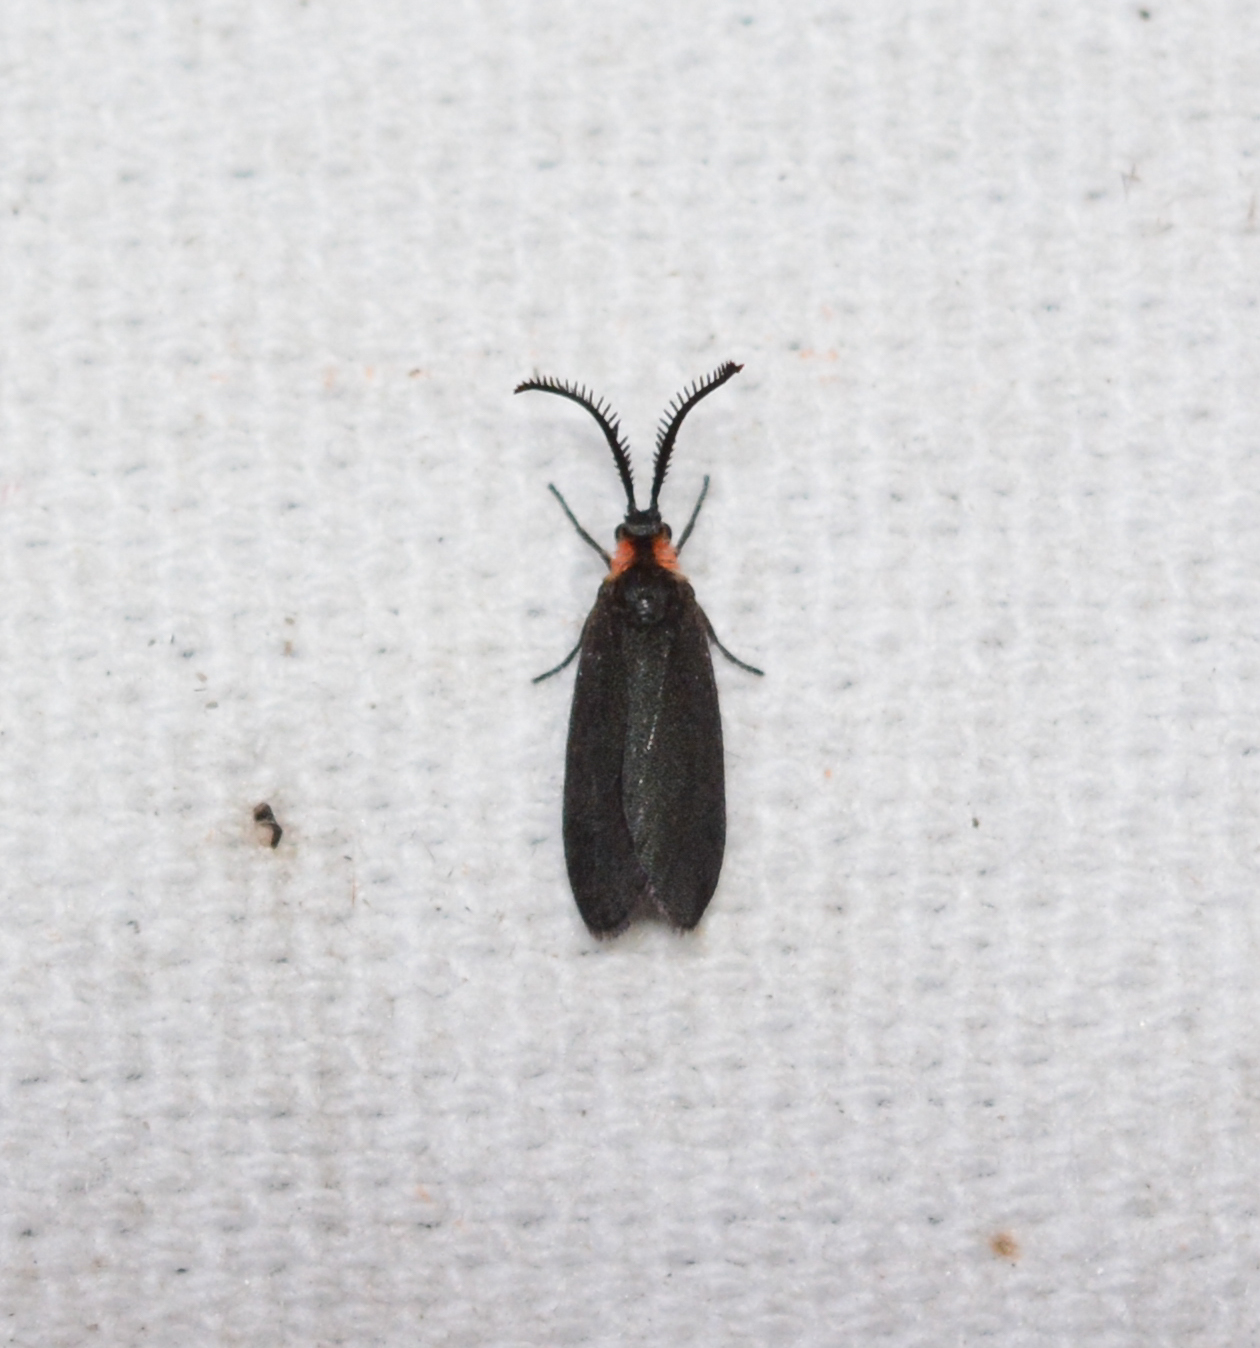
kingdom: Animalia
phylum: Arthropoda
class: Insecta
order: Lepidoptera
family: Zygaenidae
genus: Acoloithus
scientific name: Acoloithus falsarius
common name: Clemens' false skeletonizer
